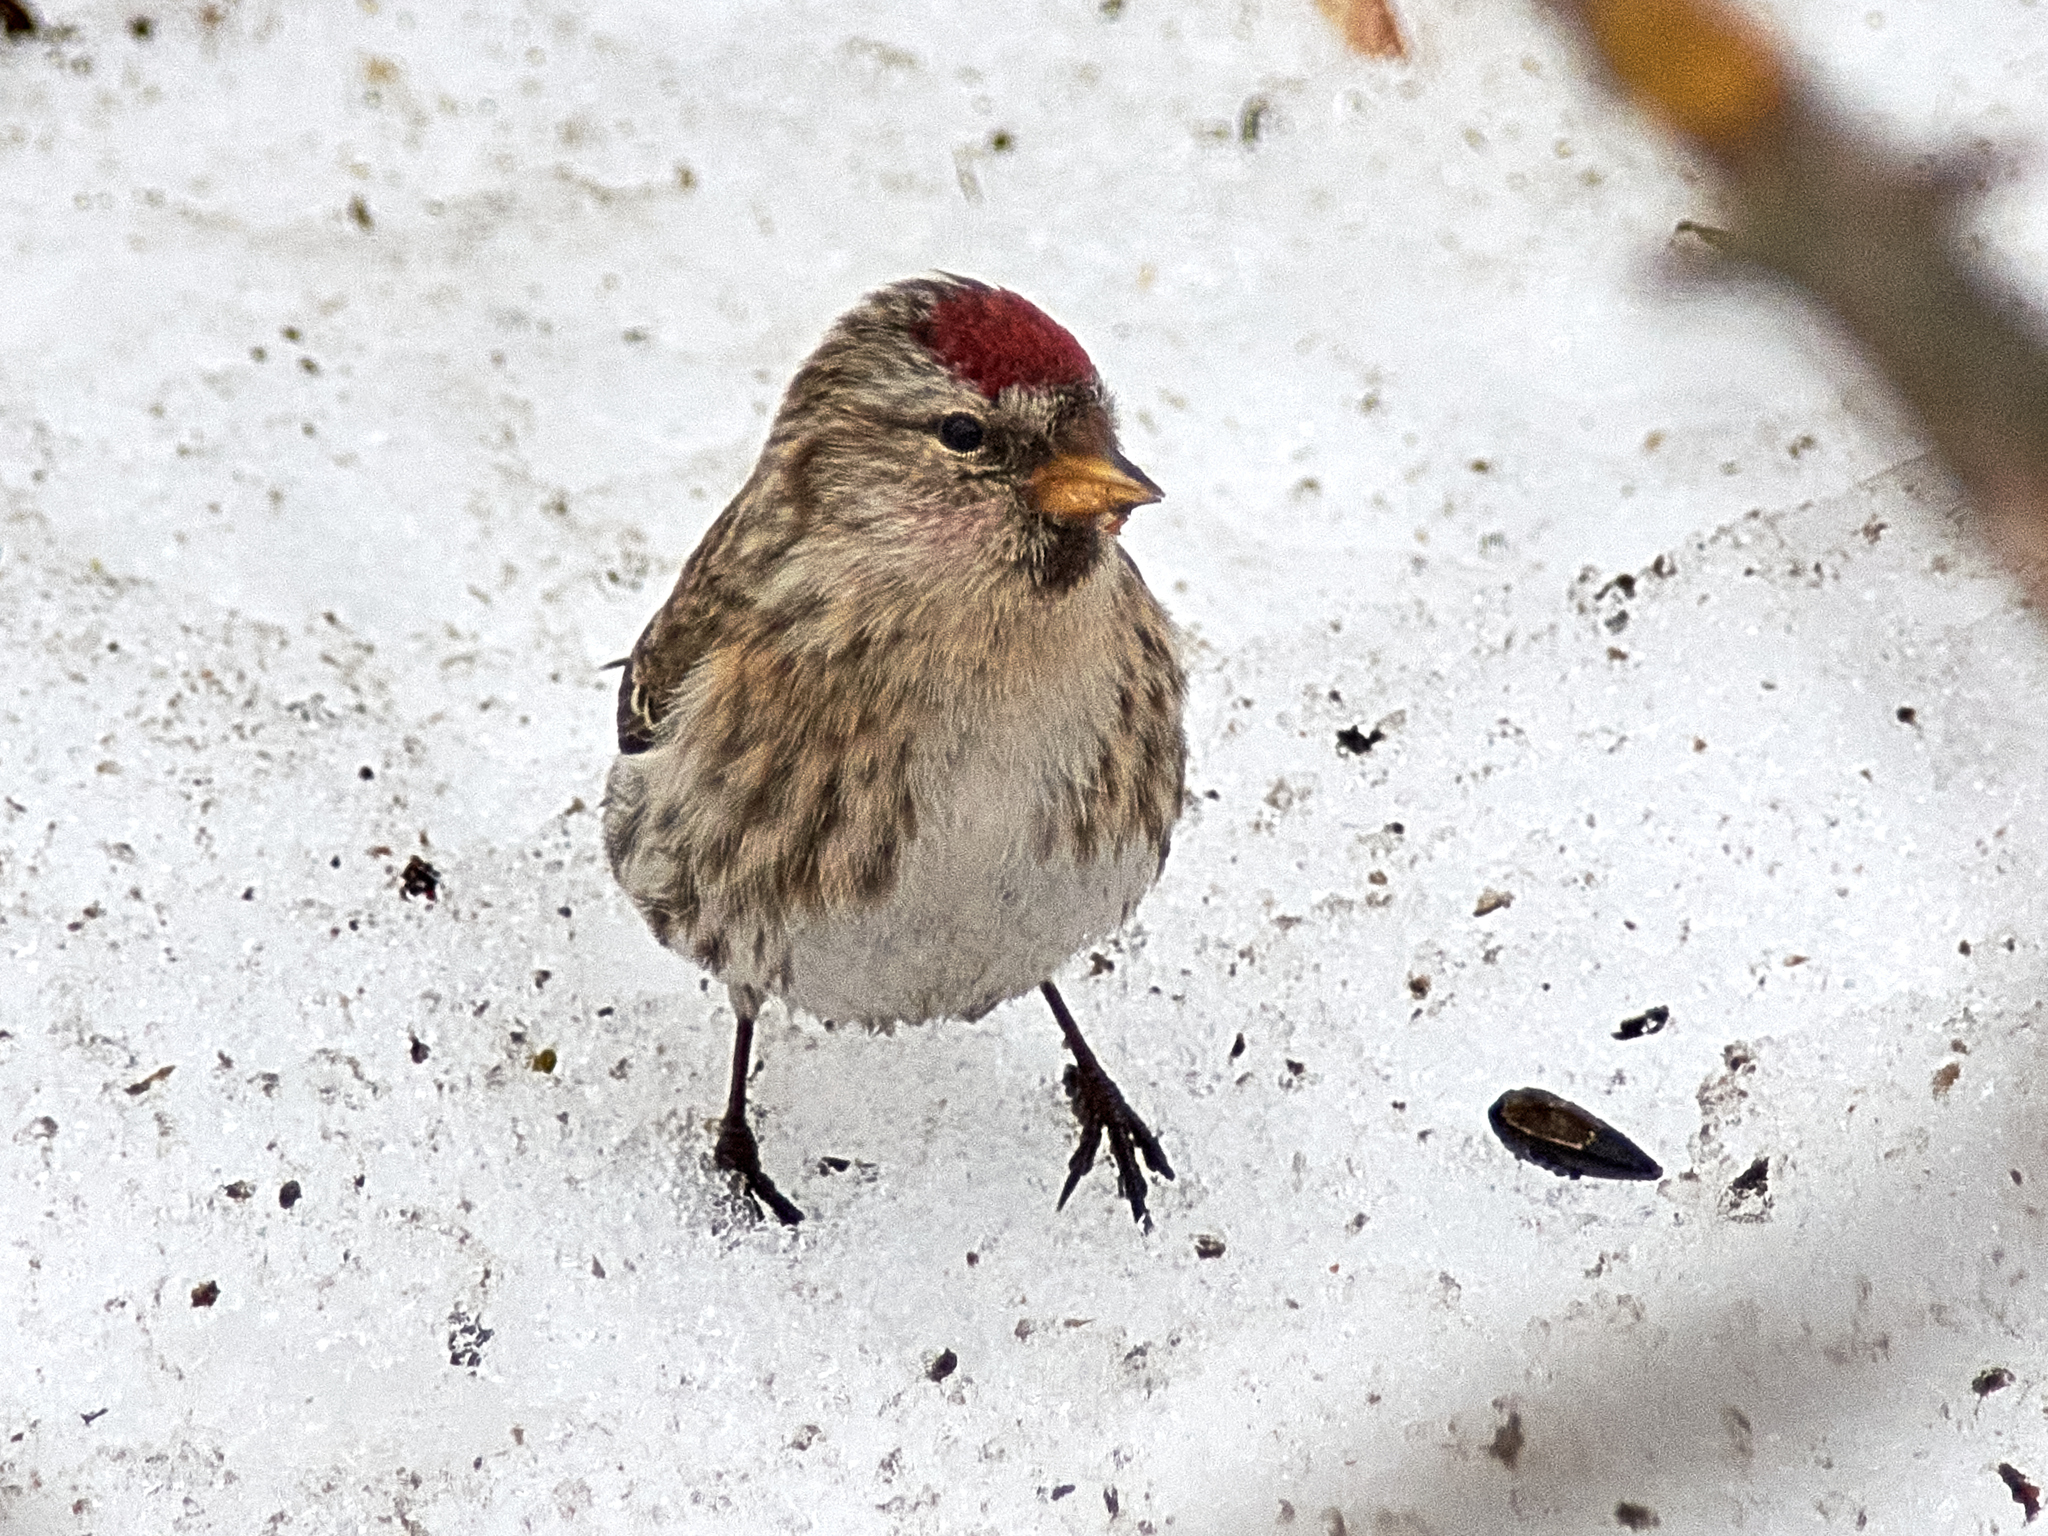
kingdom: Animalia
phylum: Chordata
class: Aves
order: Passeriformes
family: Fringillidae
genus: Acanthis
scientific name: Acanthis flammea
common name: Common redpoll
